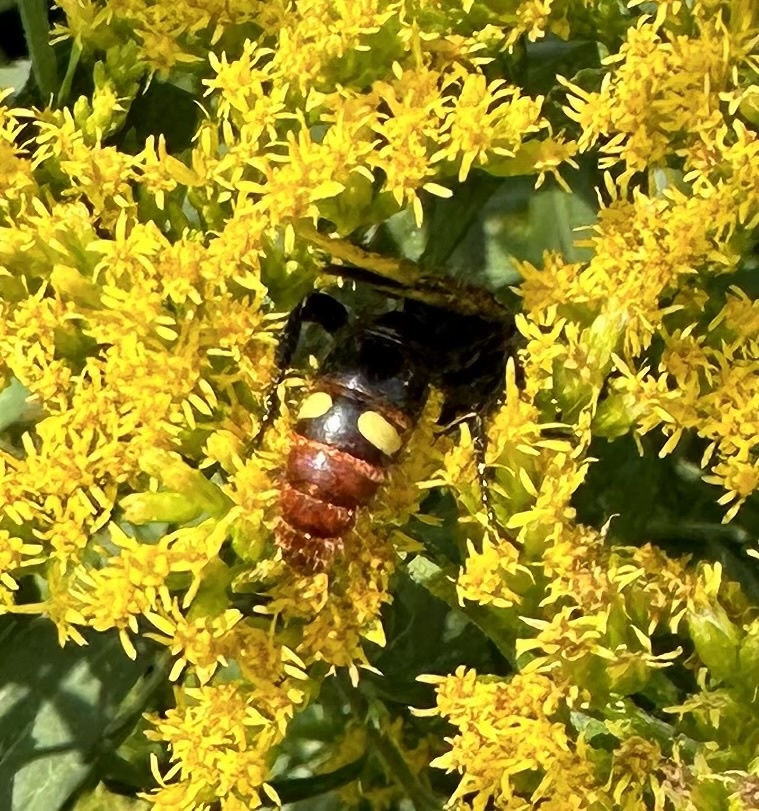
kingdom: Animalia
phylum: Arthropoda
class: Insecta
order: Hymenoptera
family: Scoliidae
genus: Scolia
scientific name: Scolia dubia
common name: Blue-winged scoliid wasp
